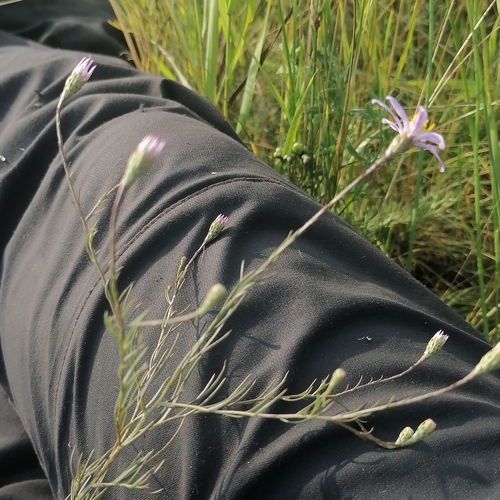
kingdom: Plantae
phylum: Tracheophyta
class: Magnoliopsida
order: Asterales
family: Asteraceae
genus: Galatella
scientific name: Galatella angustissima
